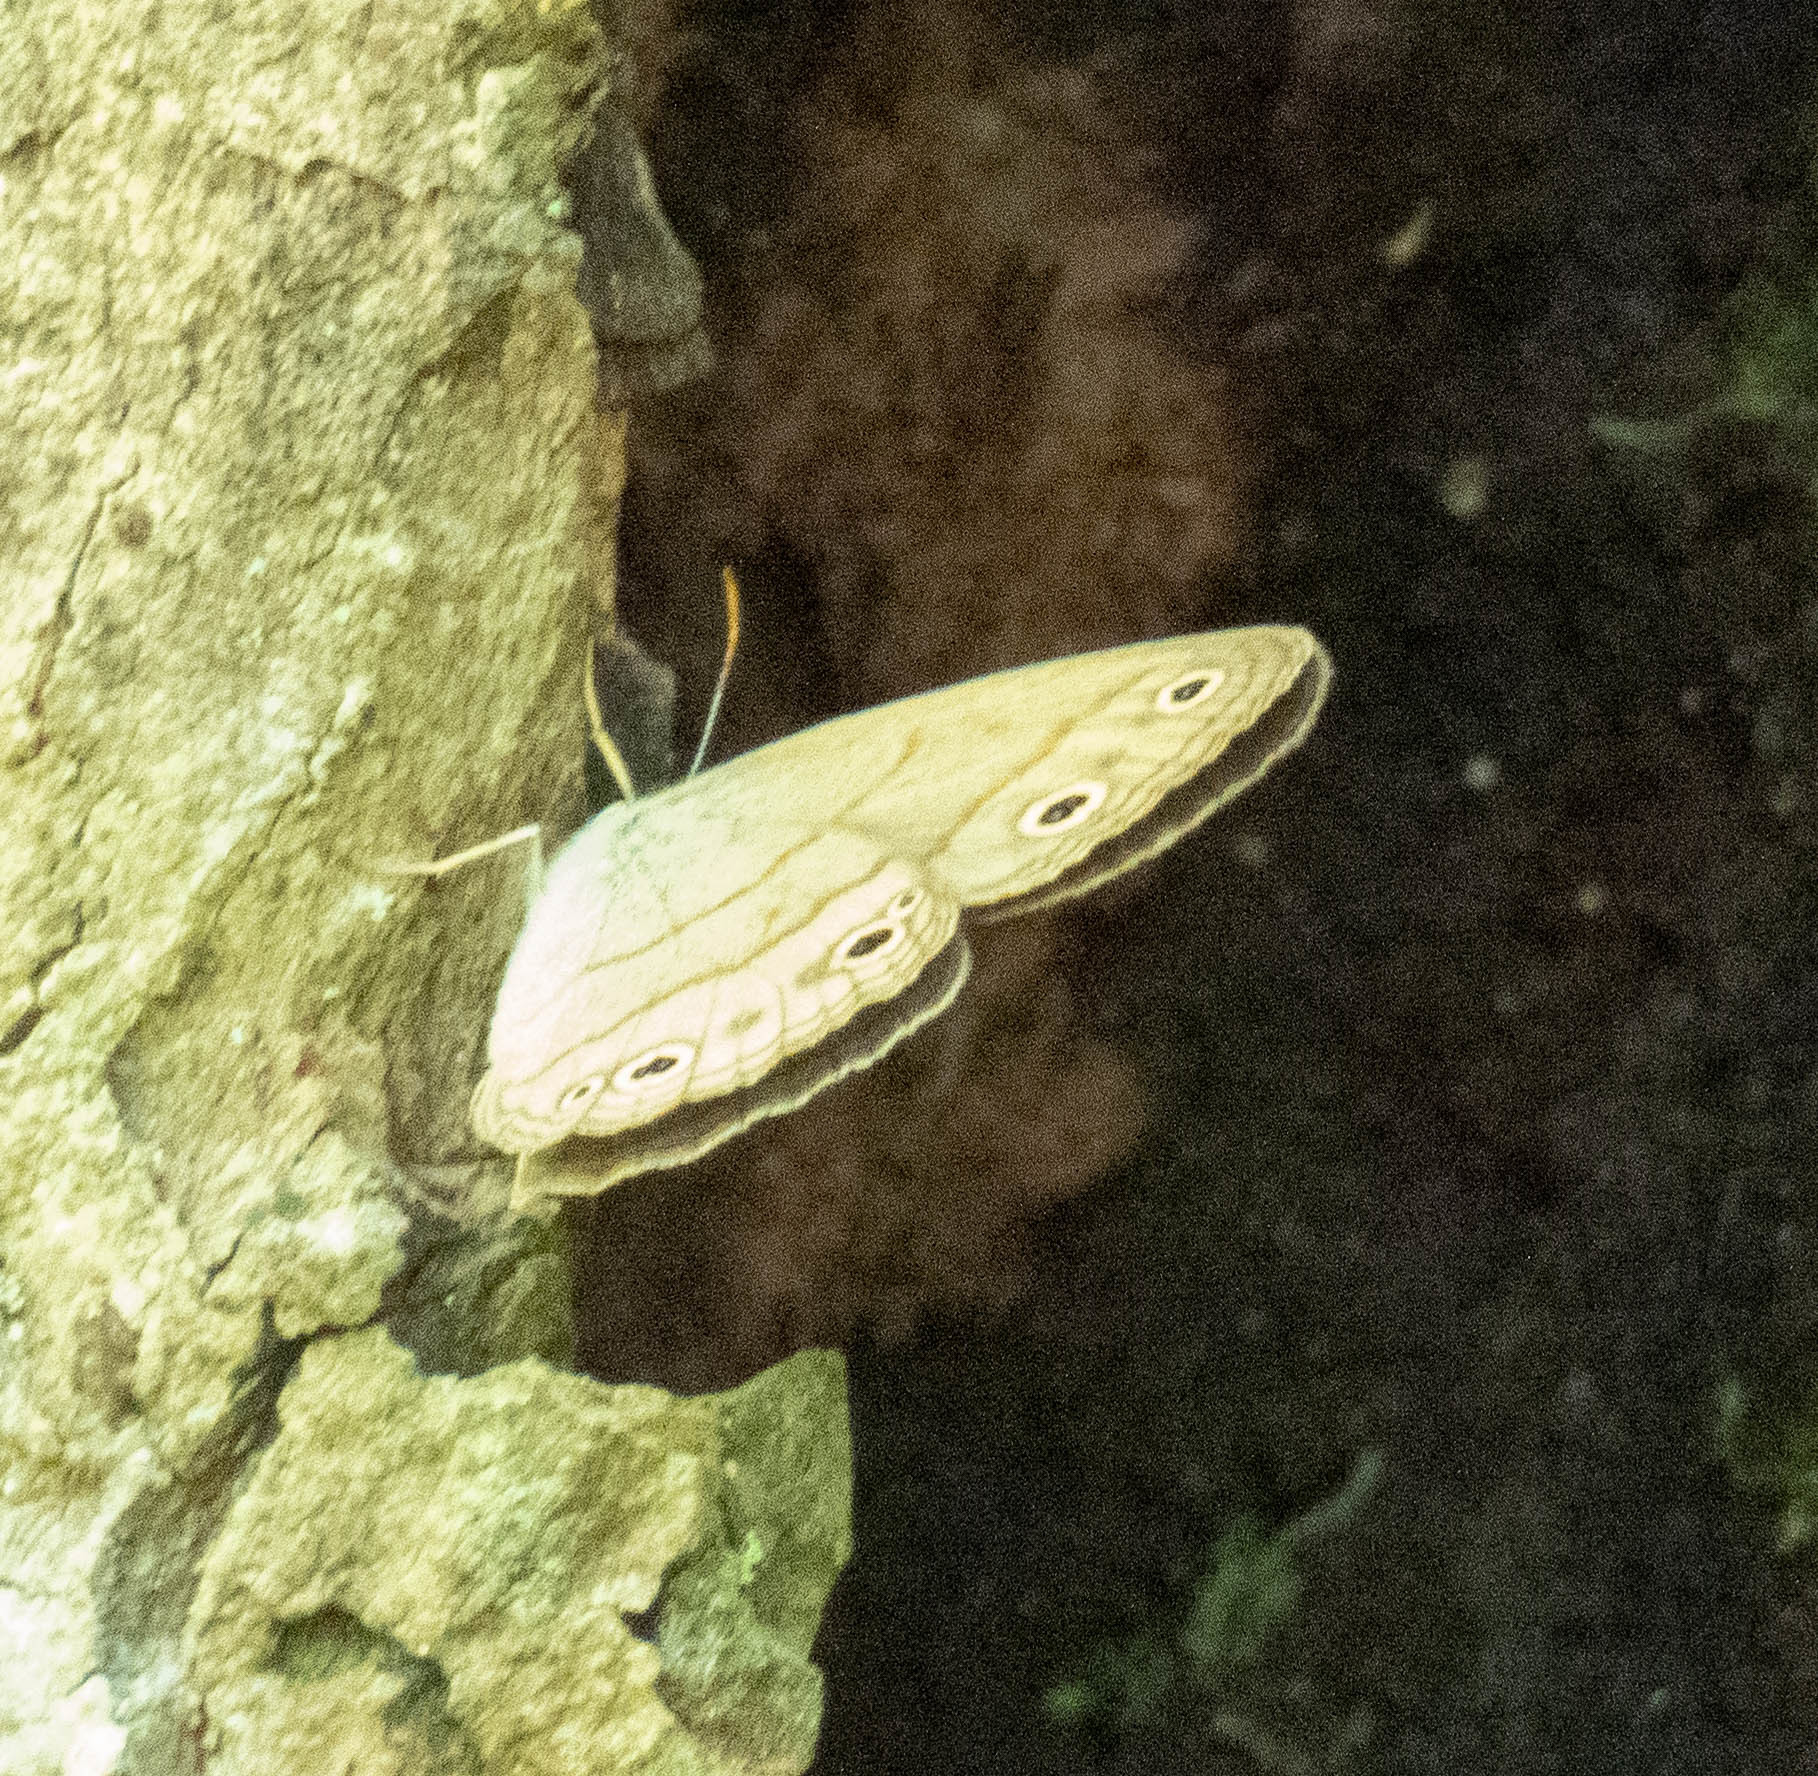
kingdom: Animalia
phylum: Arthropoda
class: Insecta
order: Lepidoptera
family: Nymphalidae
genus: Euptychia
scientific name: Euptychia cymela
